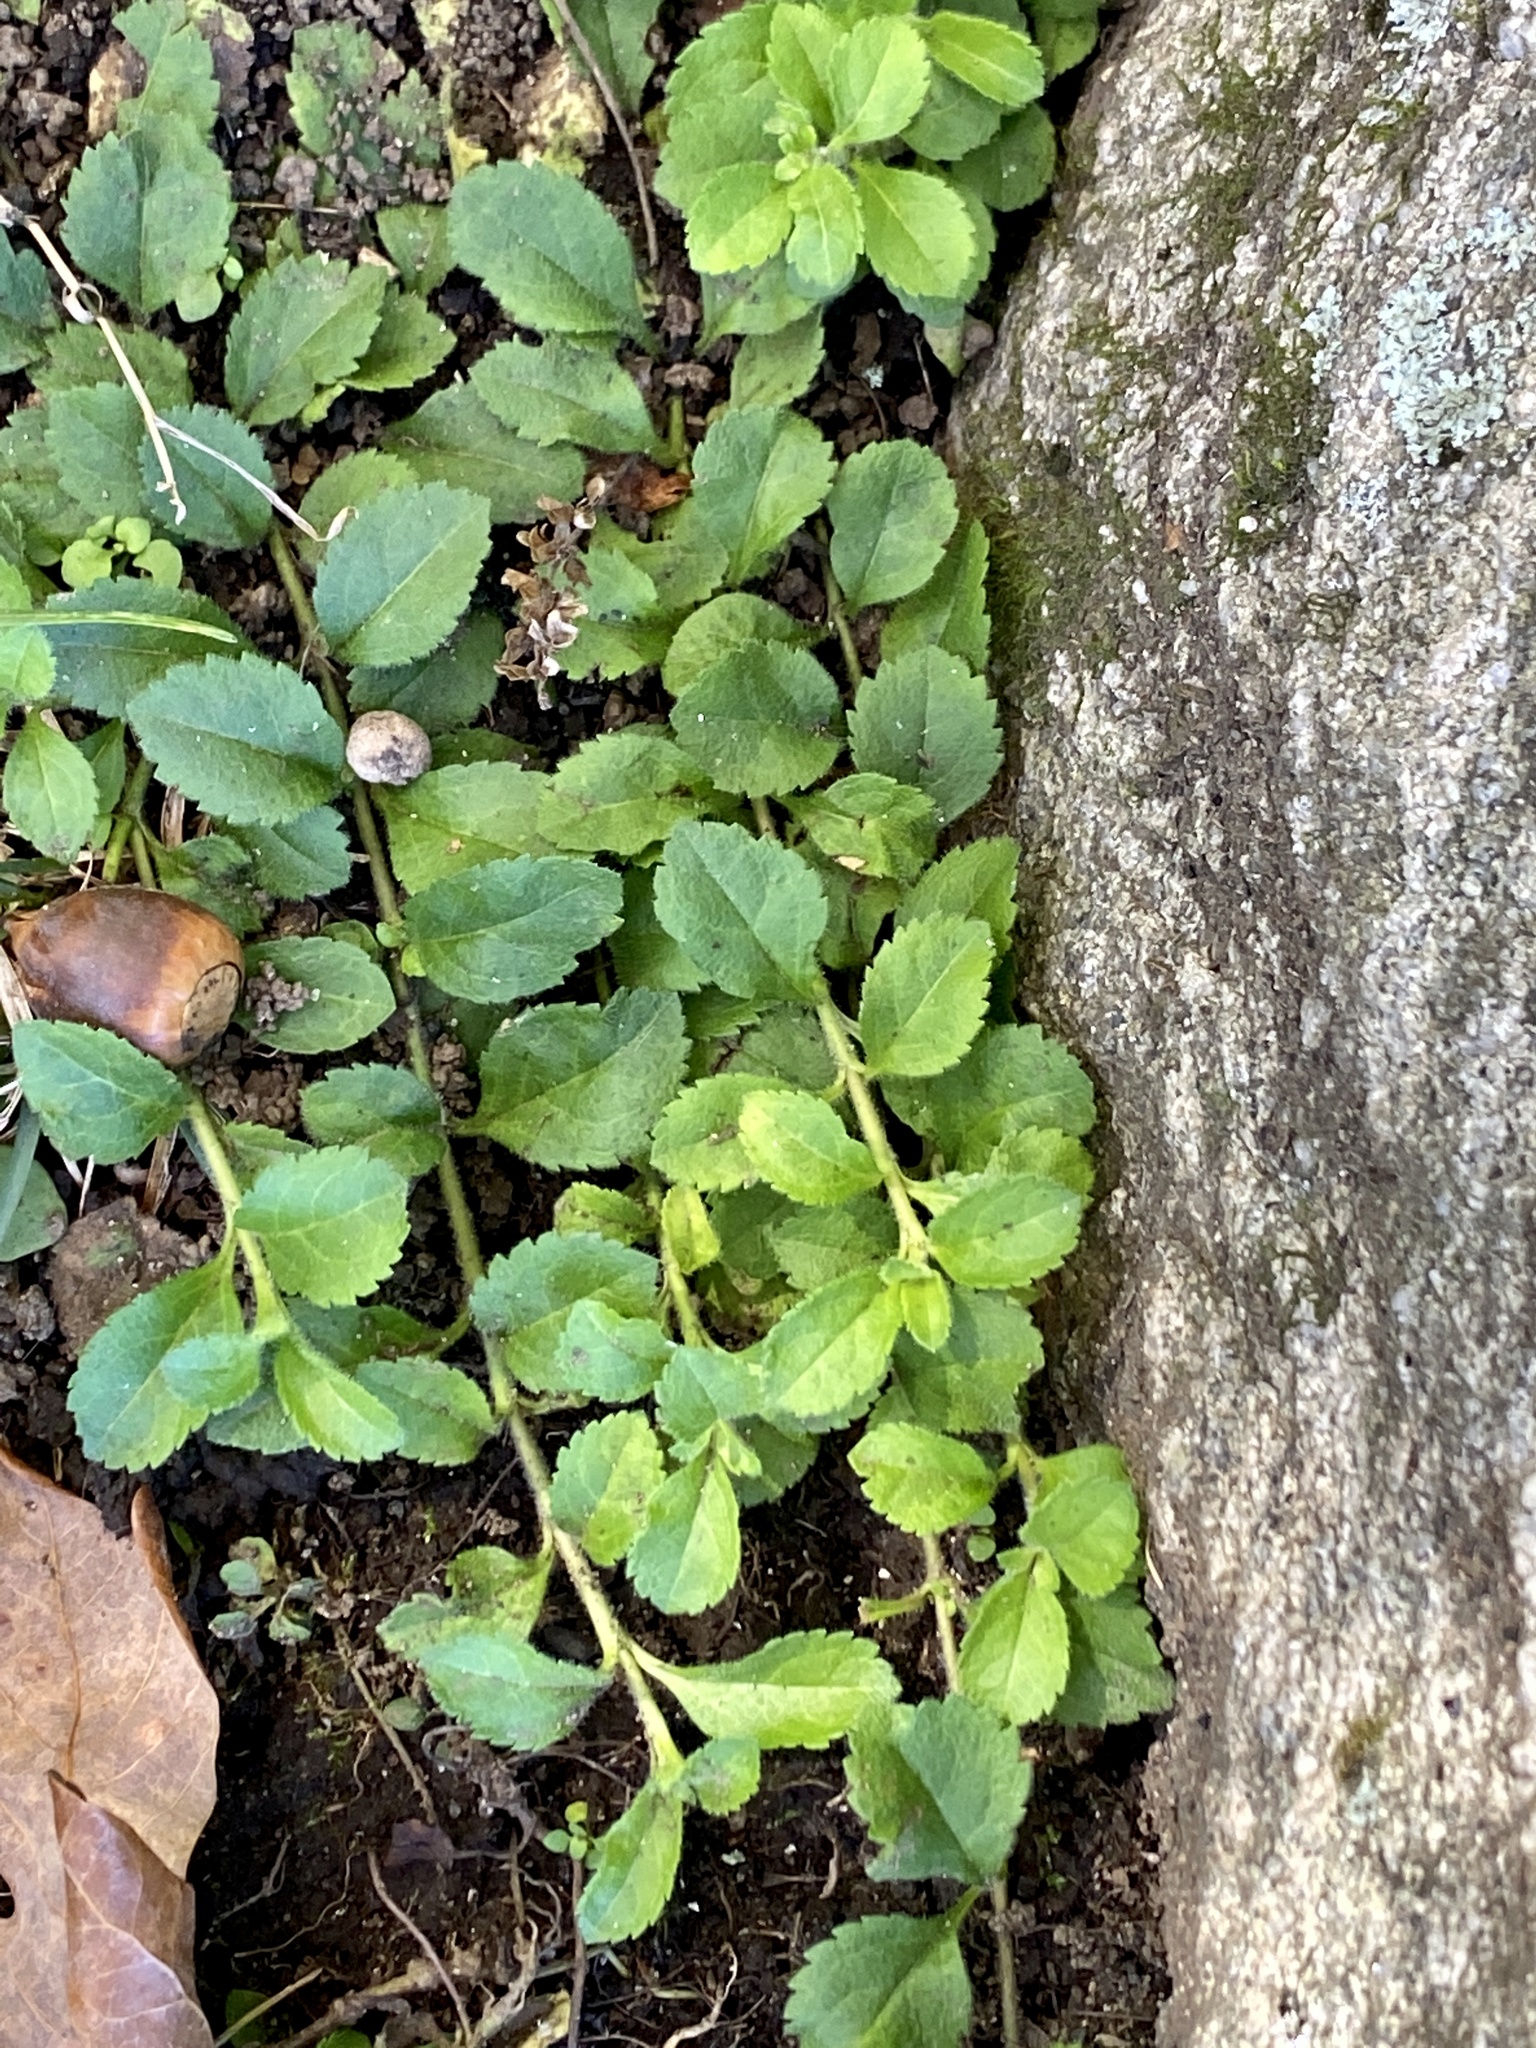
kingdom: Plantae
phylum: Tracheophyta
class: Magnoliopsida
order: Lamiales
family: Plantaginaceae
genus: Veronica
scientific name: Veronica officinalis
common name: Common speedwell
